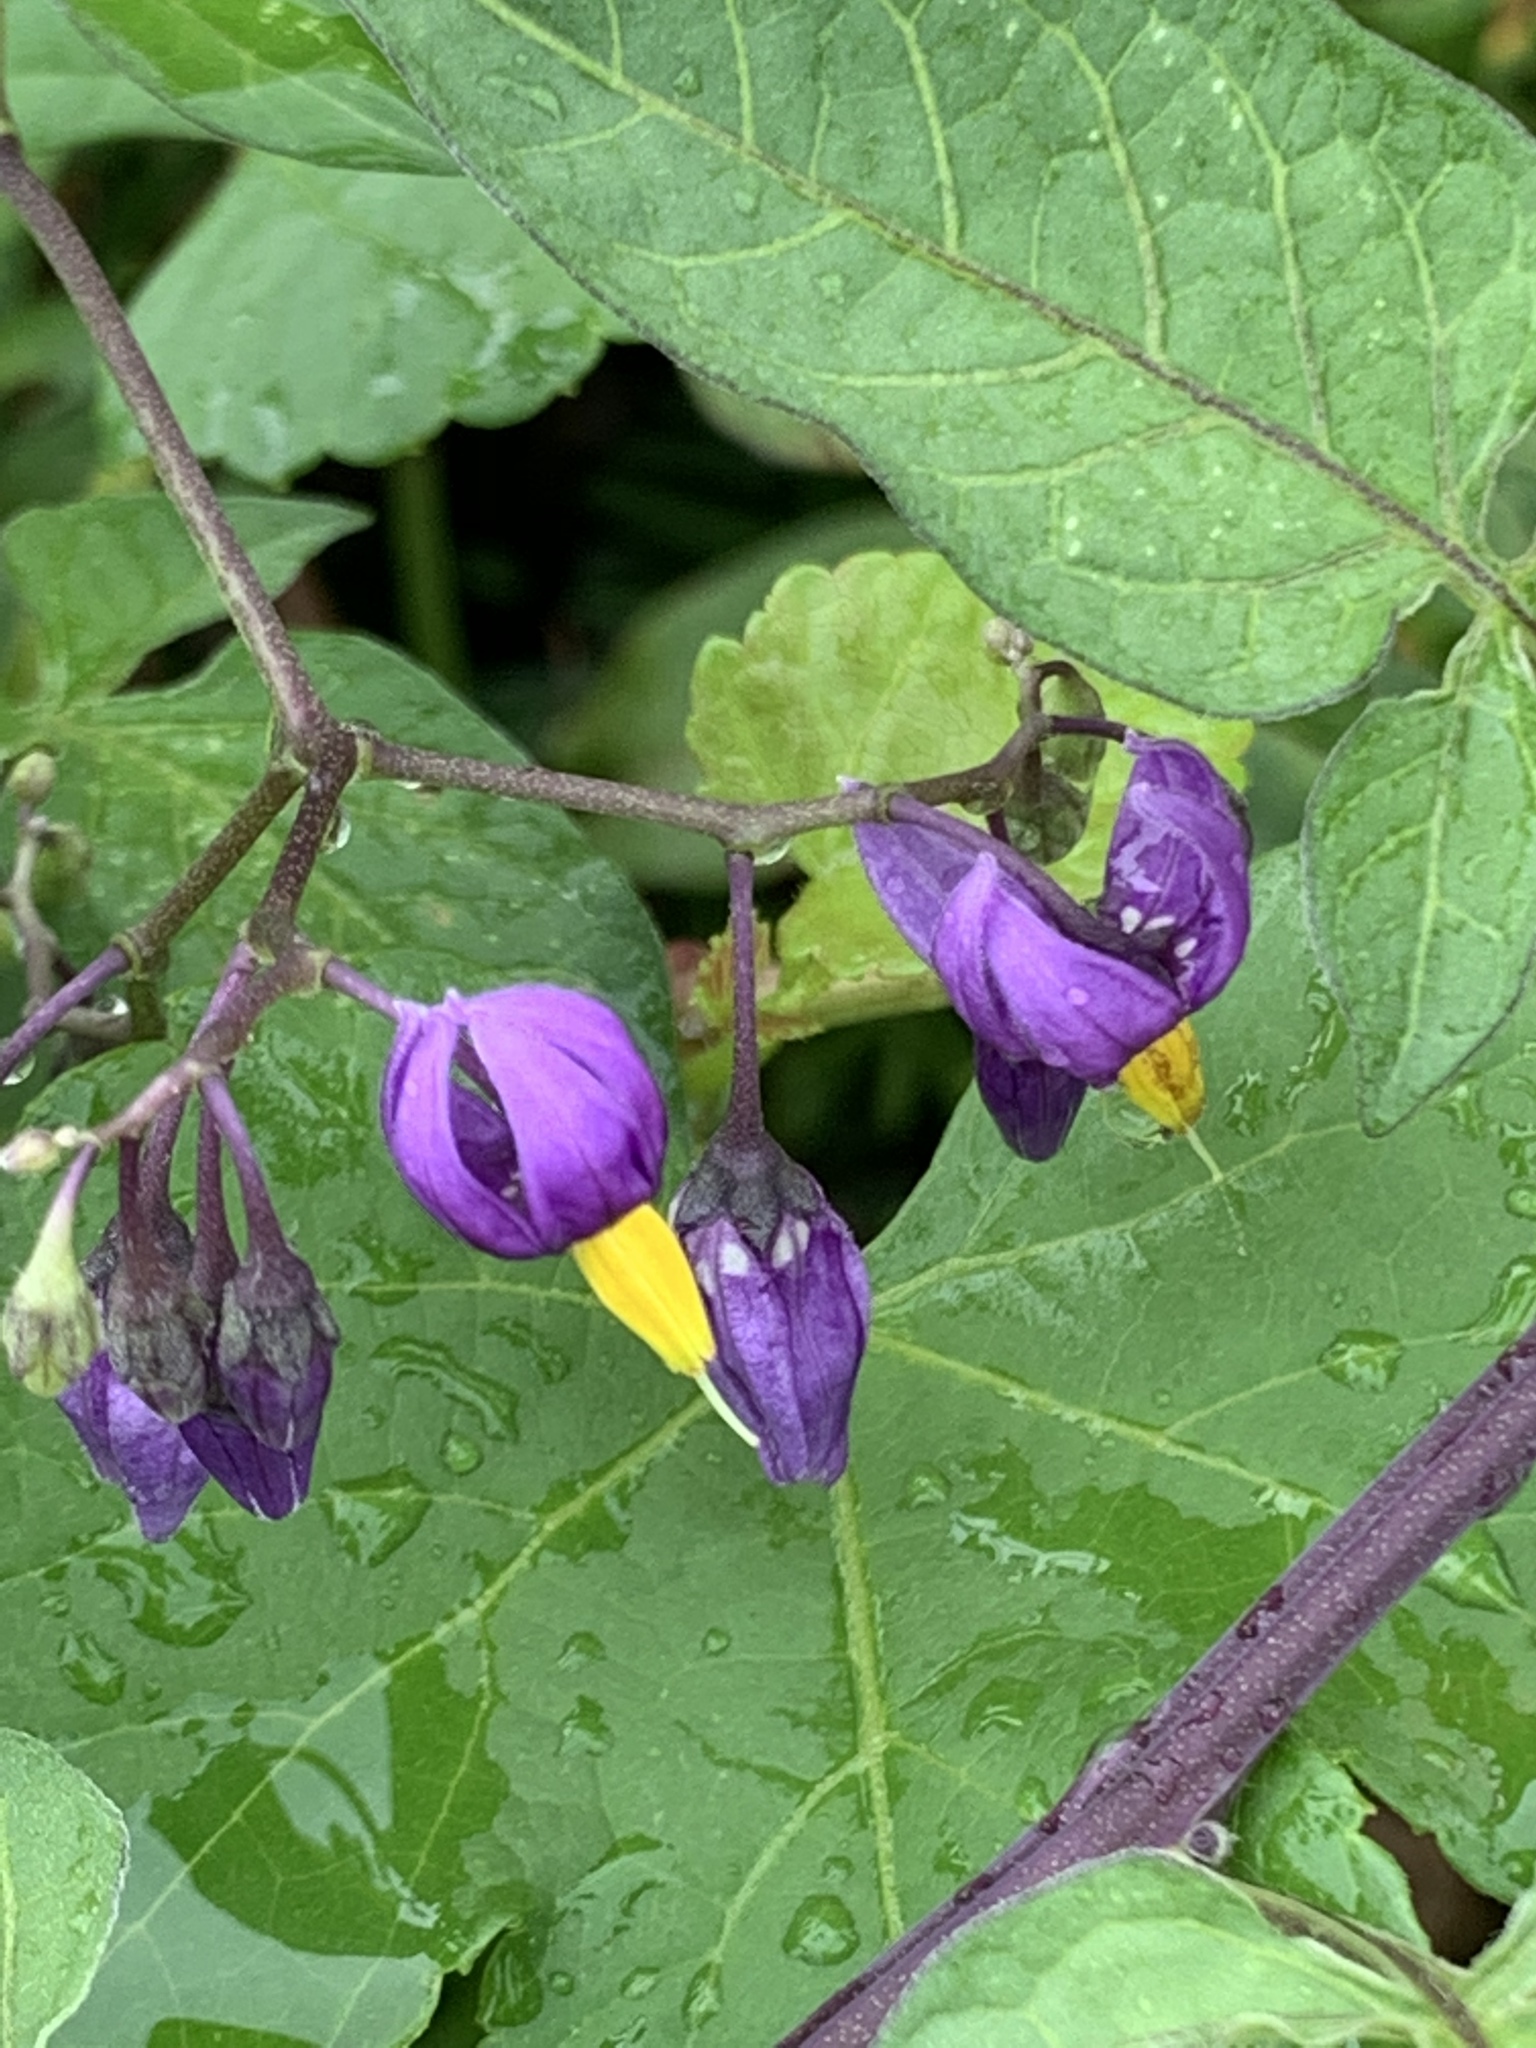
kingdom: Plantae
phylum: Tracheophyta
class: Magnoliopsida
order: Solanales
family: Solanaceae
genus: Solanum
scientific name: Solanum dulcamara
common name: Climbing nightshade
